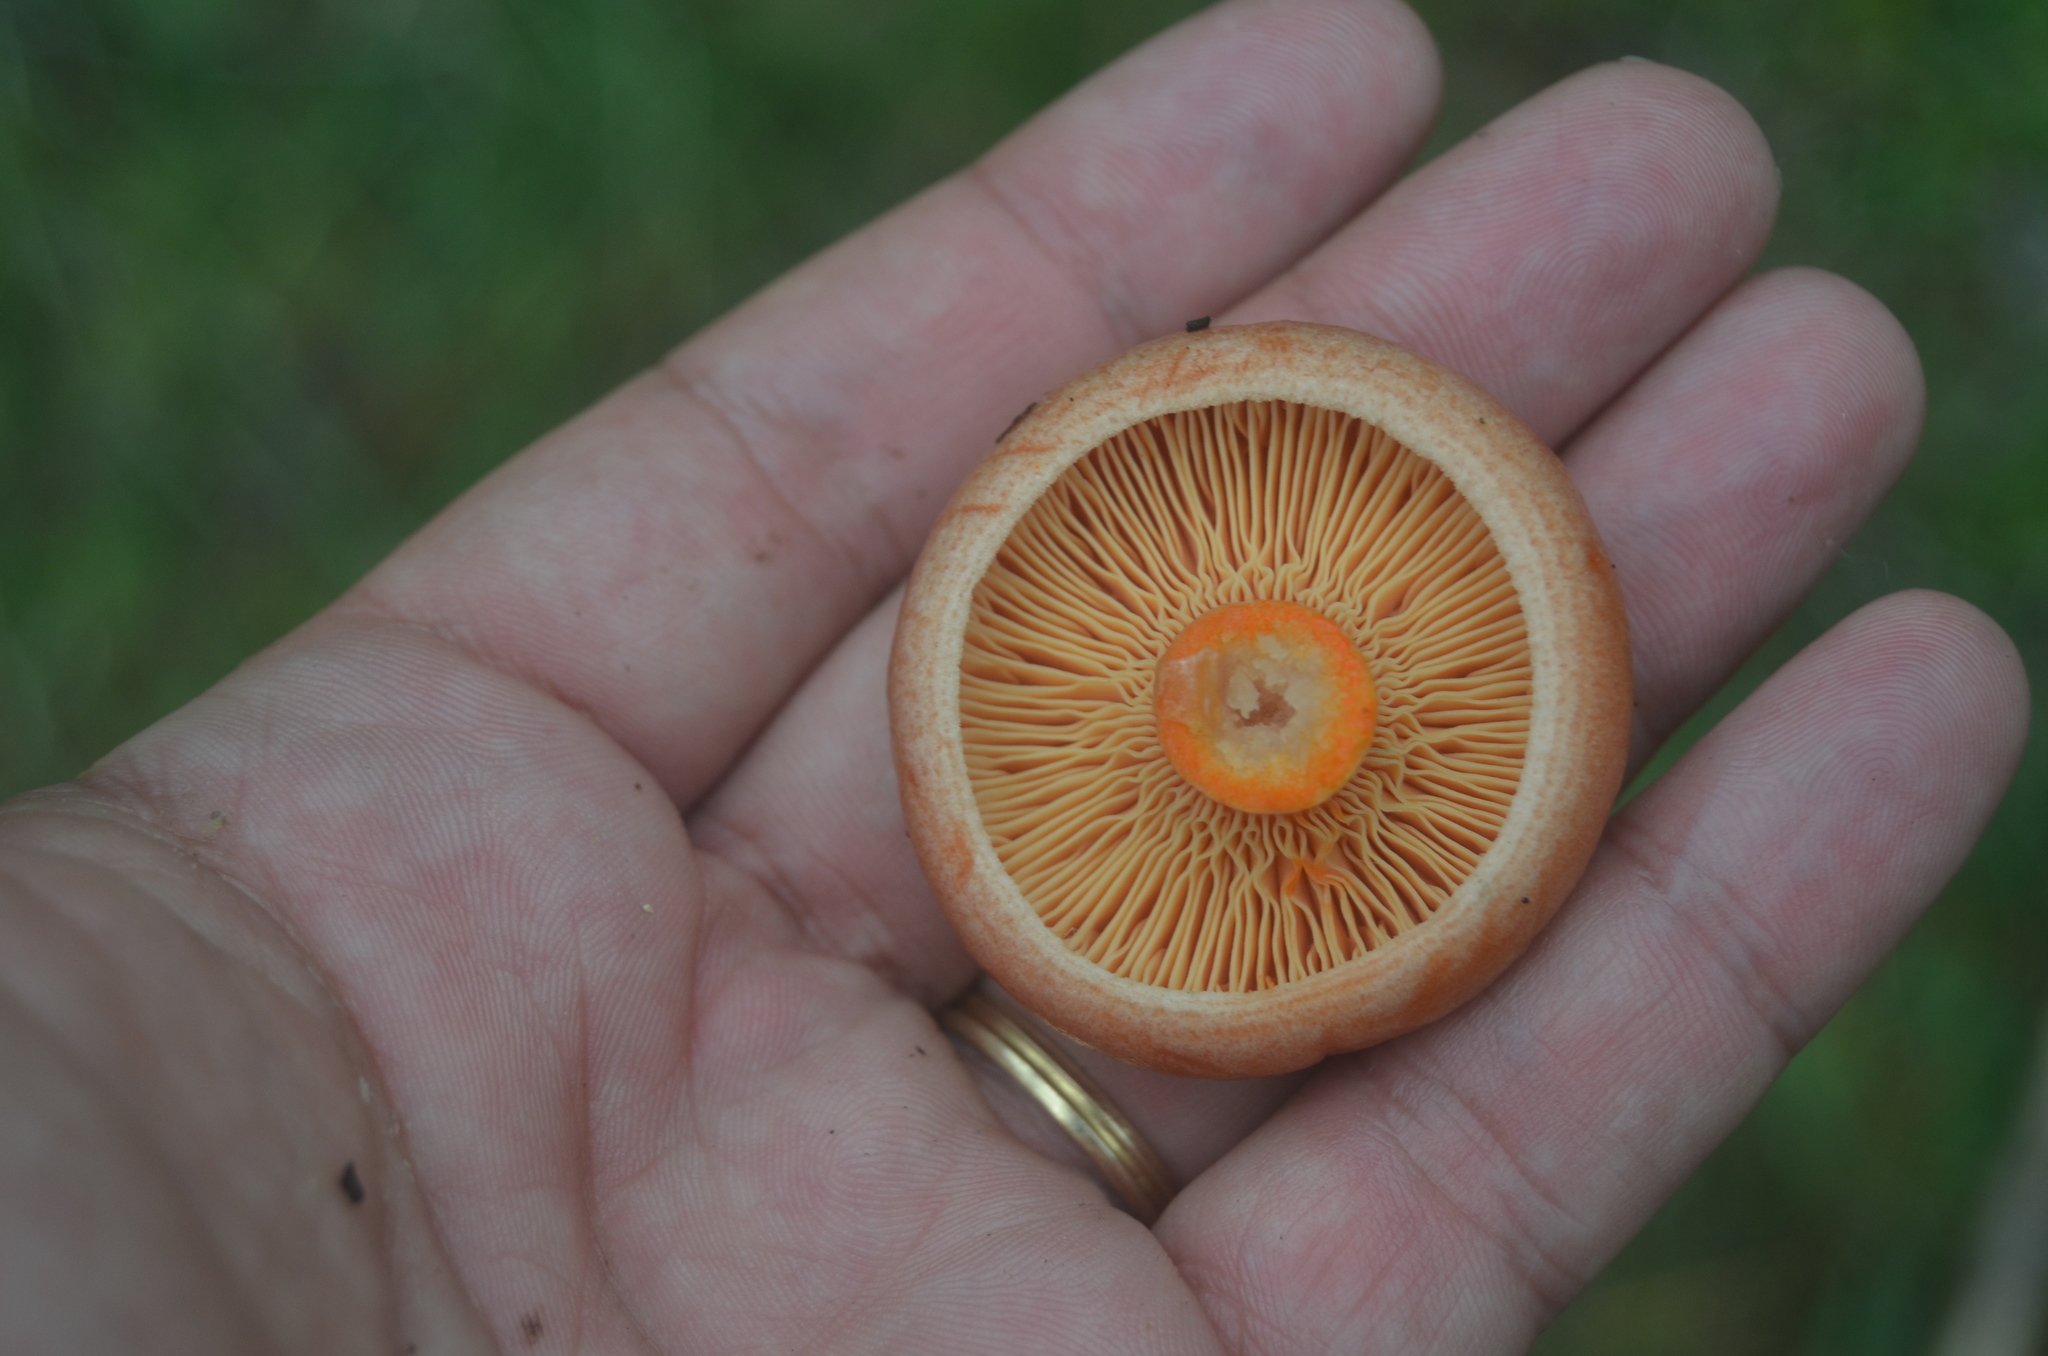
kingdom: Fungi
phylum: Basidiomycota
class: Agaricomycetes
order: Russulales
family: Russulaceae
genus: Lactarius
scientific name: Lactarius deliciosus
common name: Saffron milk-cap
